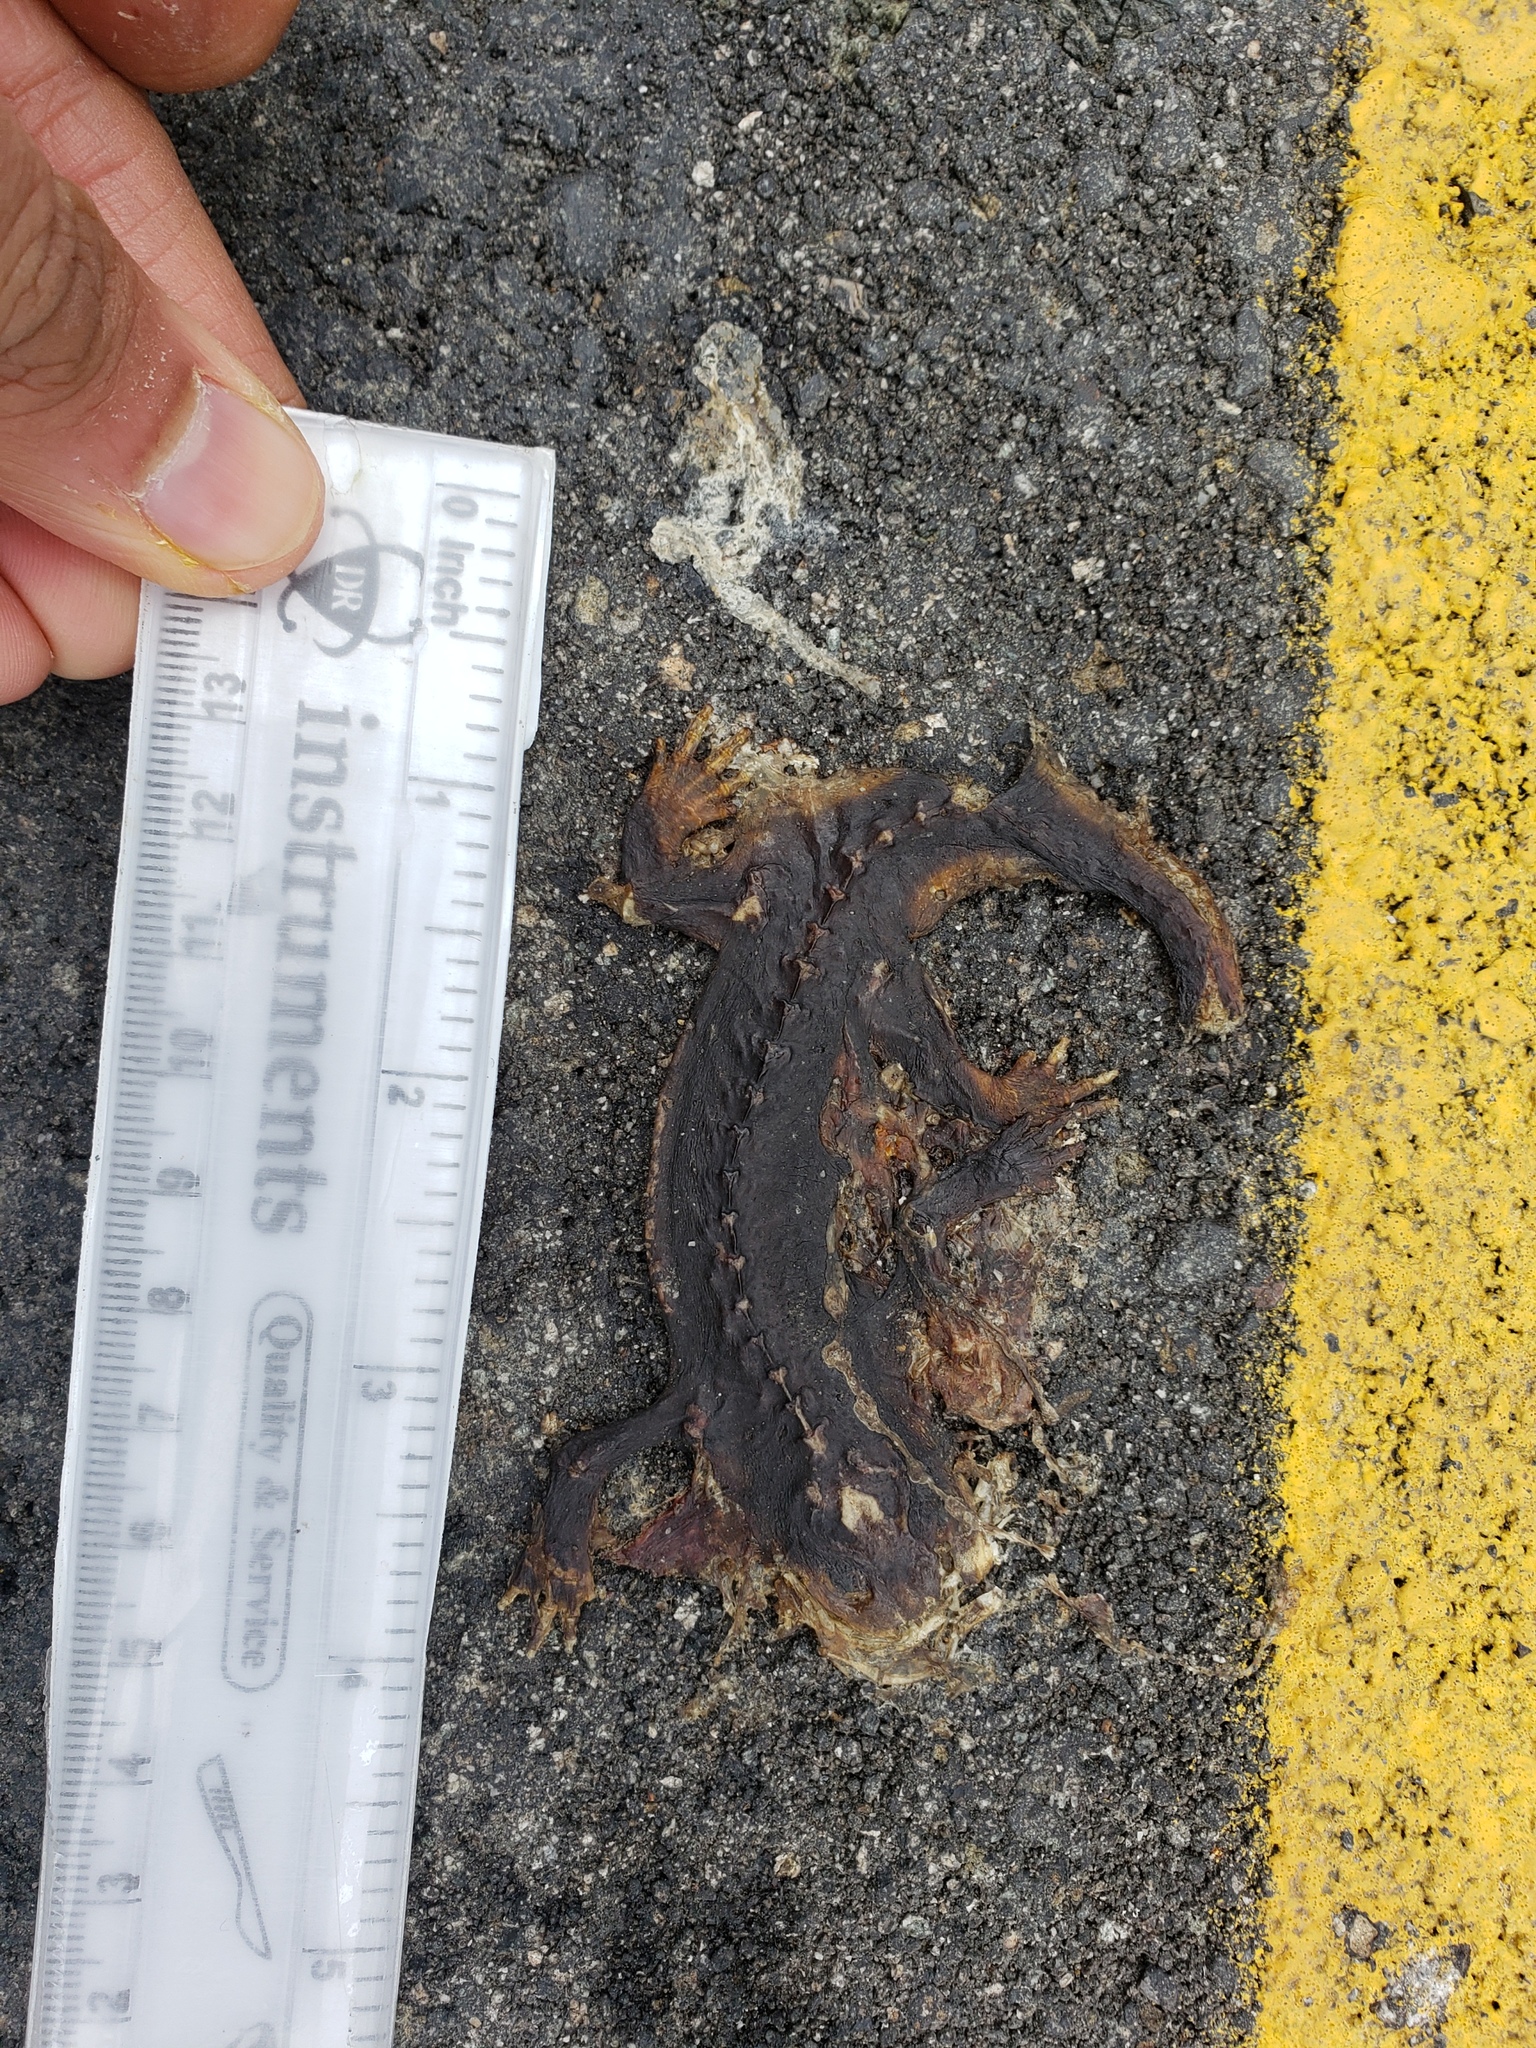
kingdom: Animalia
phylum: Chordata
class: Amphibia
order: Caudata
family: Salamandridae
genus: Taricha
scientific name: Taricha
